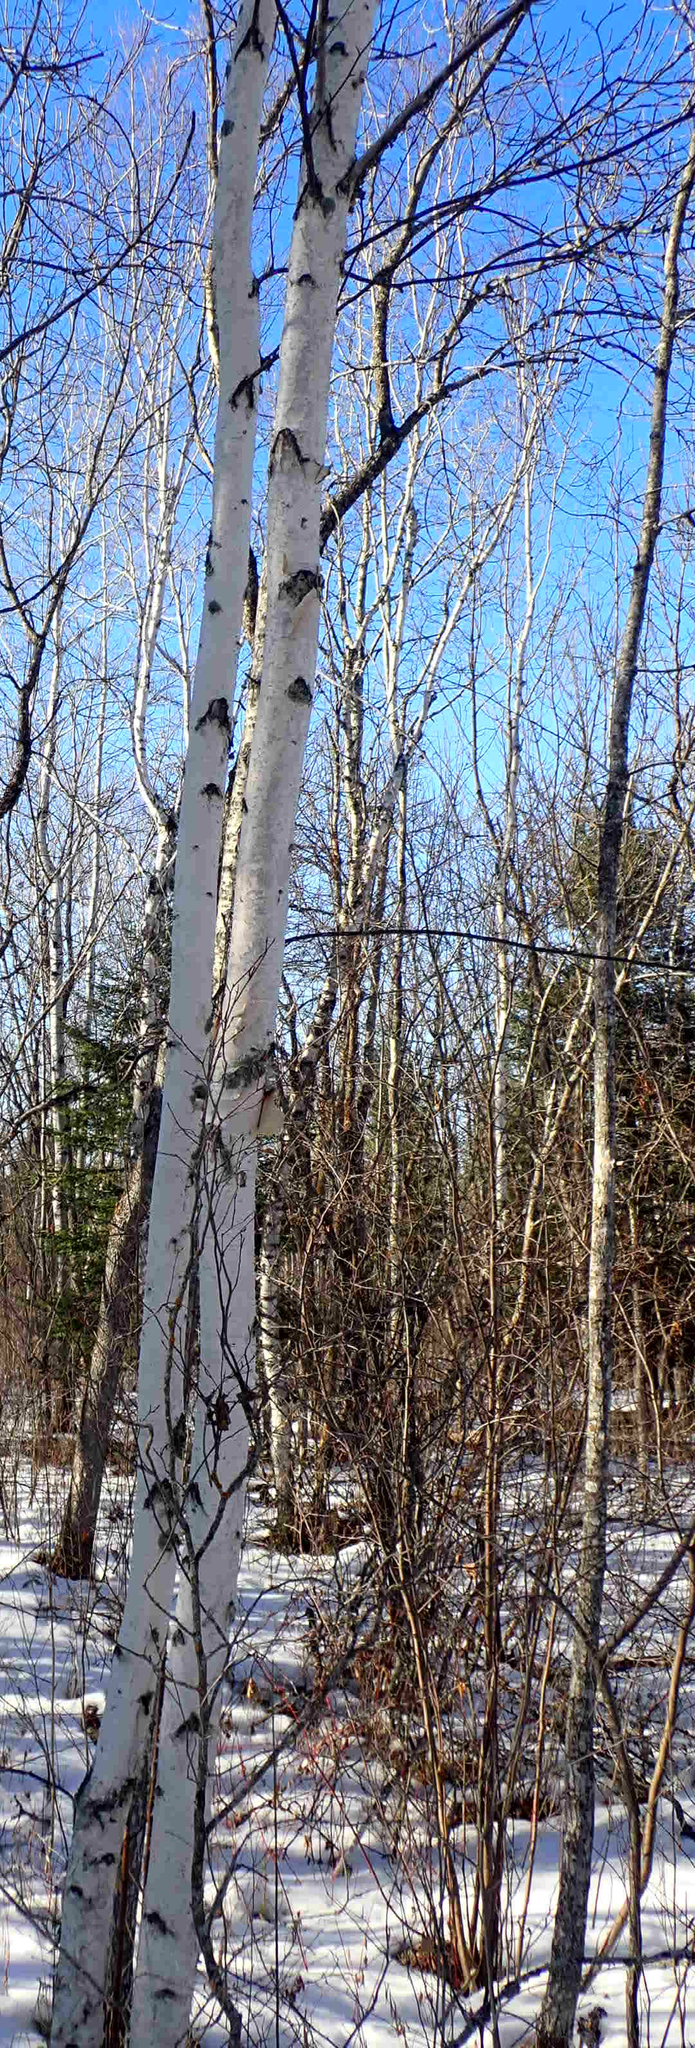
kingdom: Plantae
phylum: Tracheophyta
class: Magnoliopsida
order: Fagales
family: Betulaceae
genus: Betula
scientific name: Betula papyrifera
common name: Paper birch
